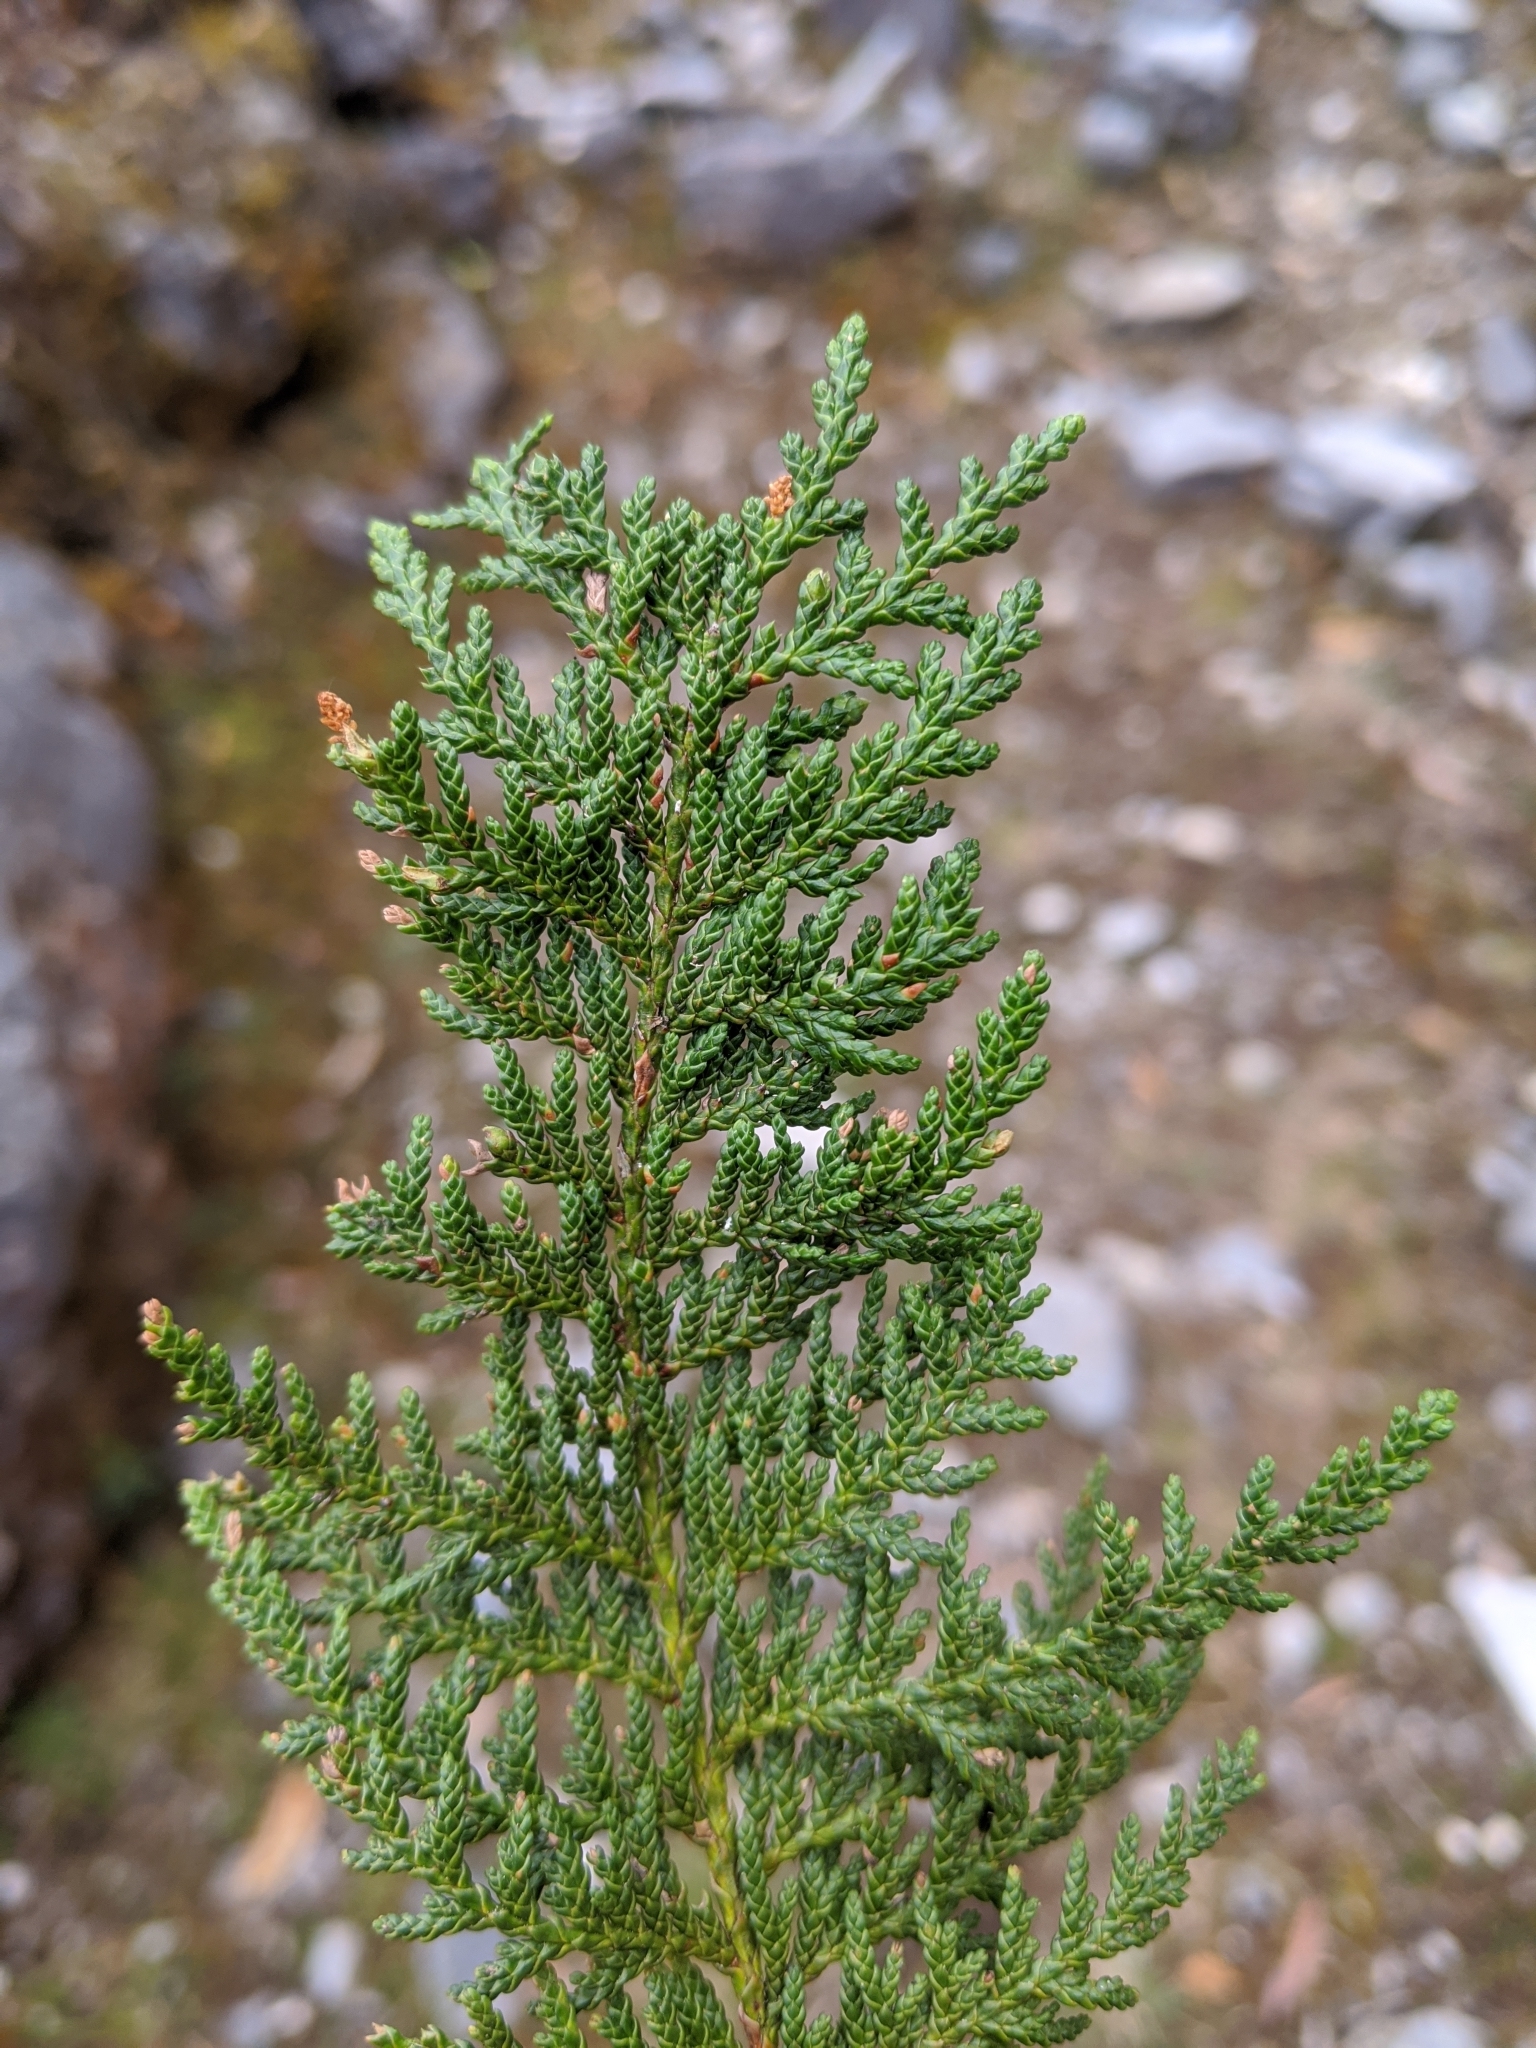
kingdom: Plantae
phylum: Tracheophyta
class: Pinopsida
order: Pinales
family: Cupressaceae
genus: Chamaecyparis
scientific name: Chamaecyparis formosensis
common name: Formosan cypress
